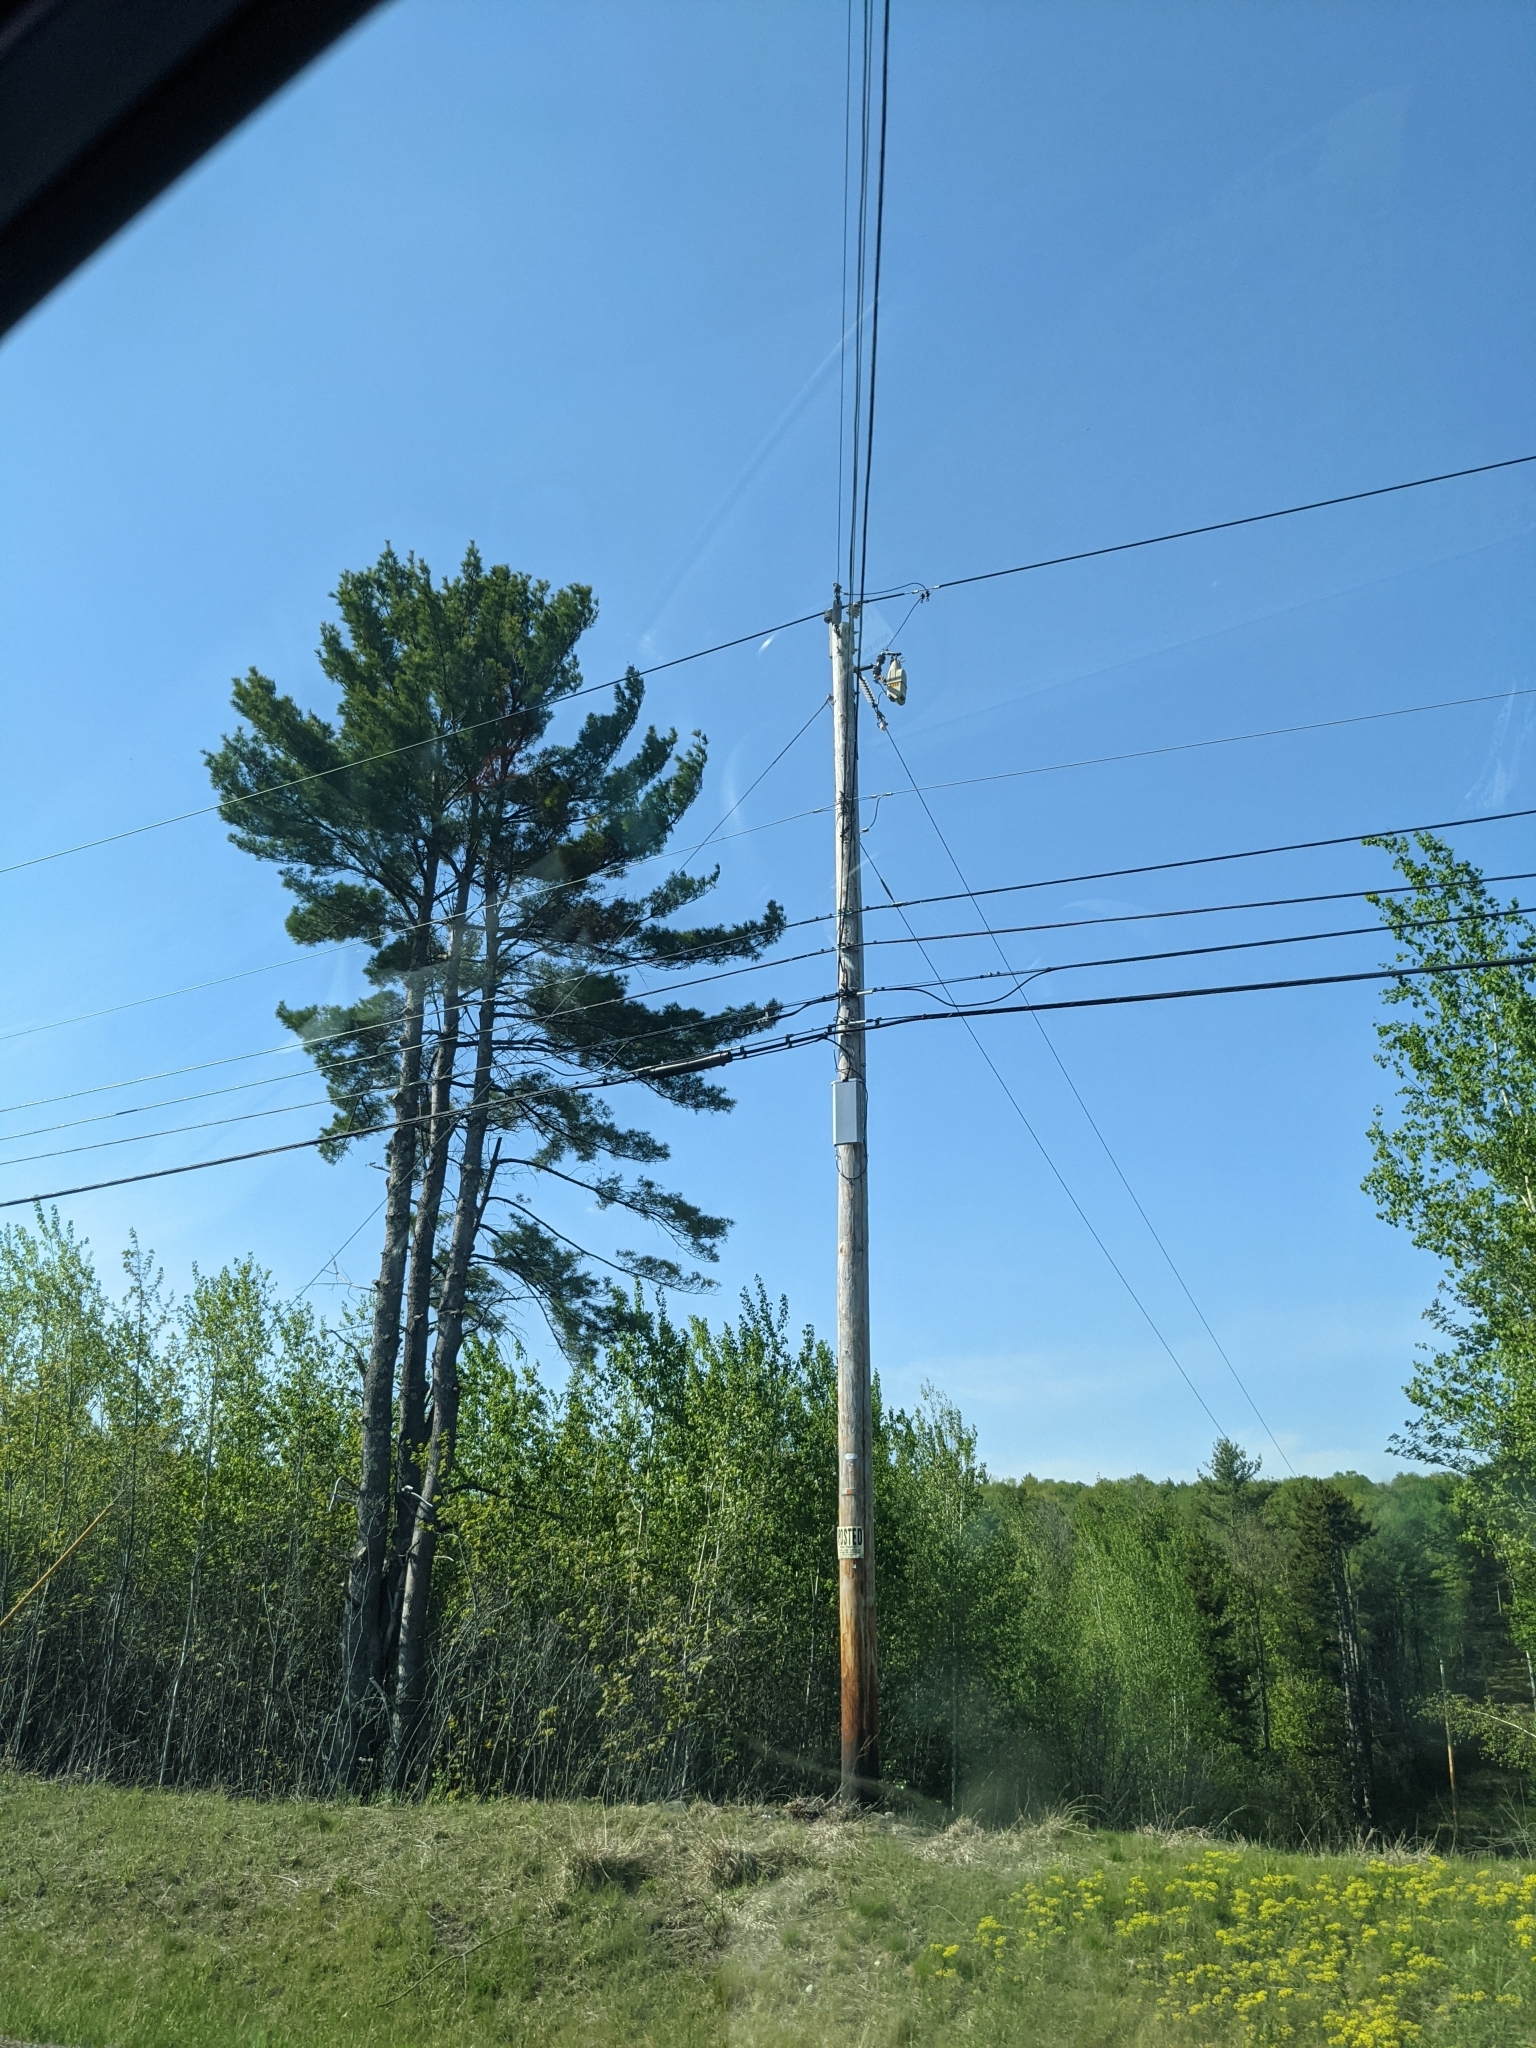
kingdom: Plantae
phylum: Tracheophyta
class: Pinopsida
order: Pinales
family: Pinaceae
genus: Pinus
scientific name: Pinus strobus
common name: Weymouth pine
